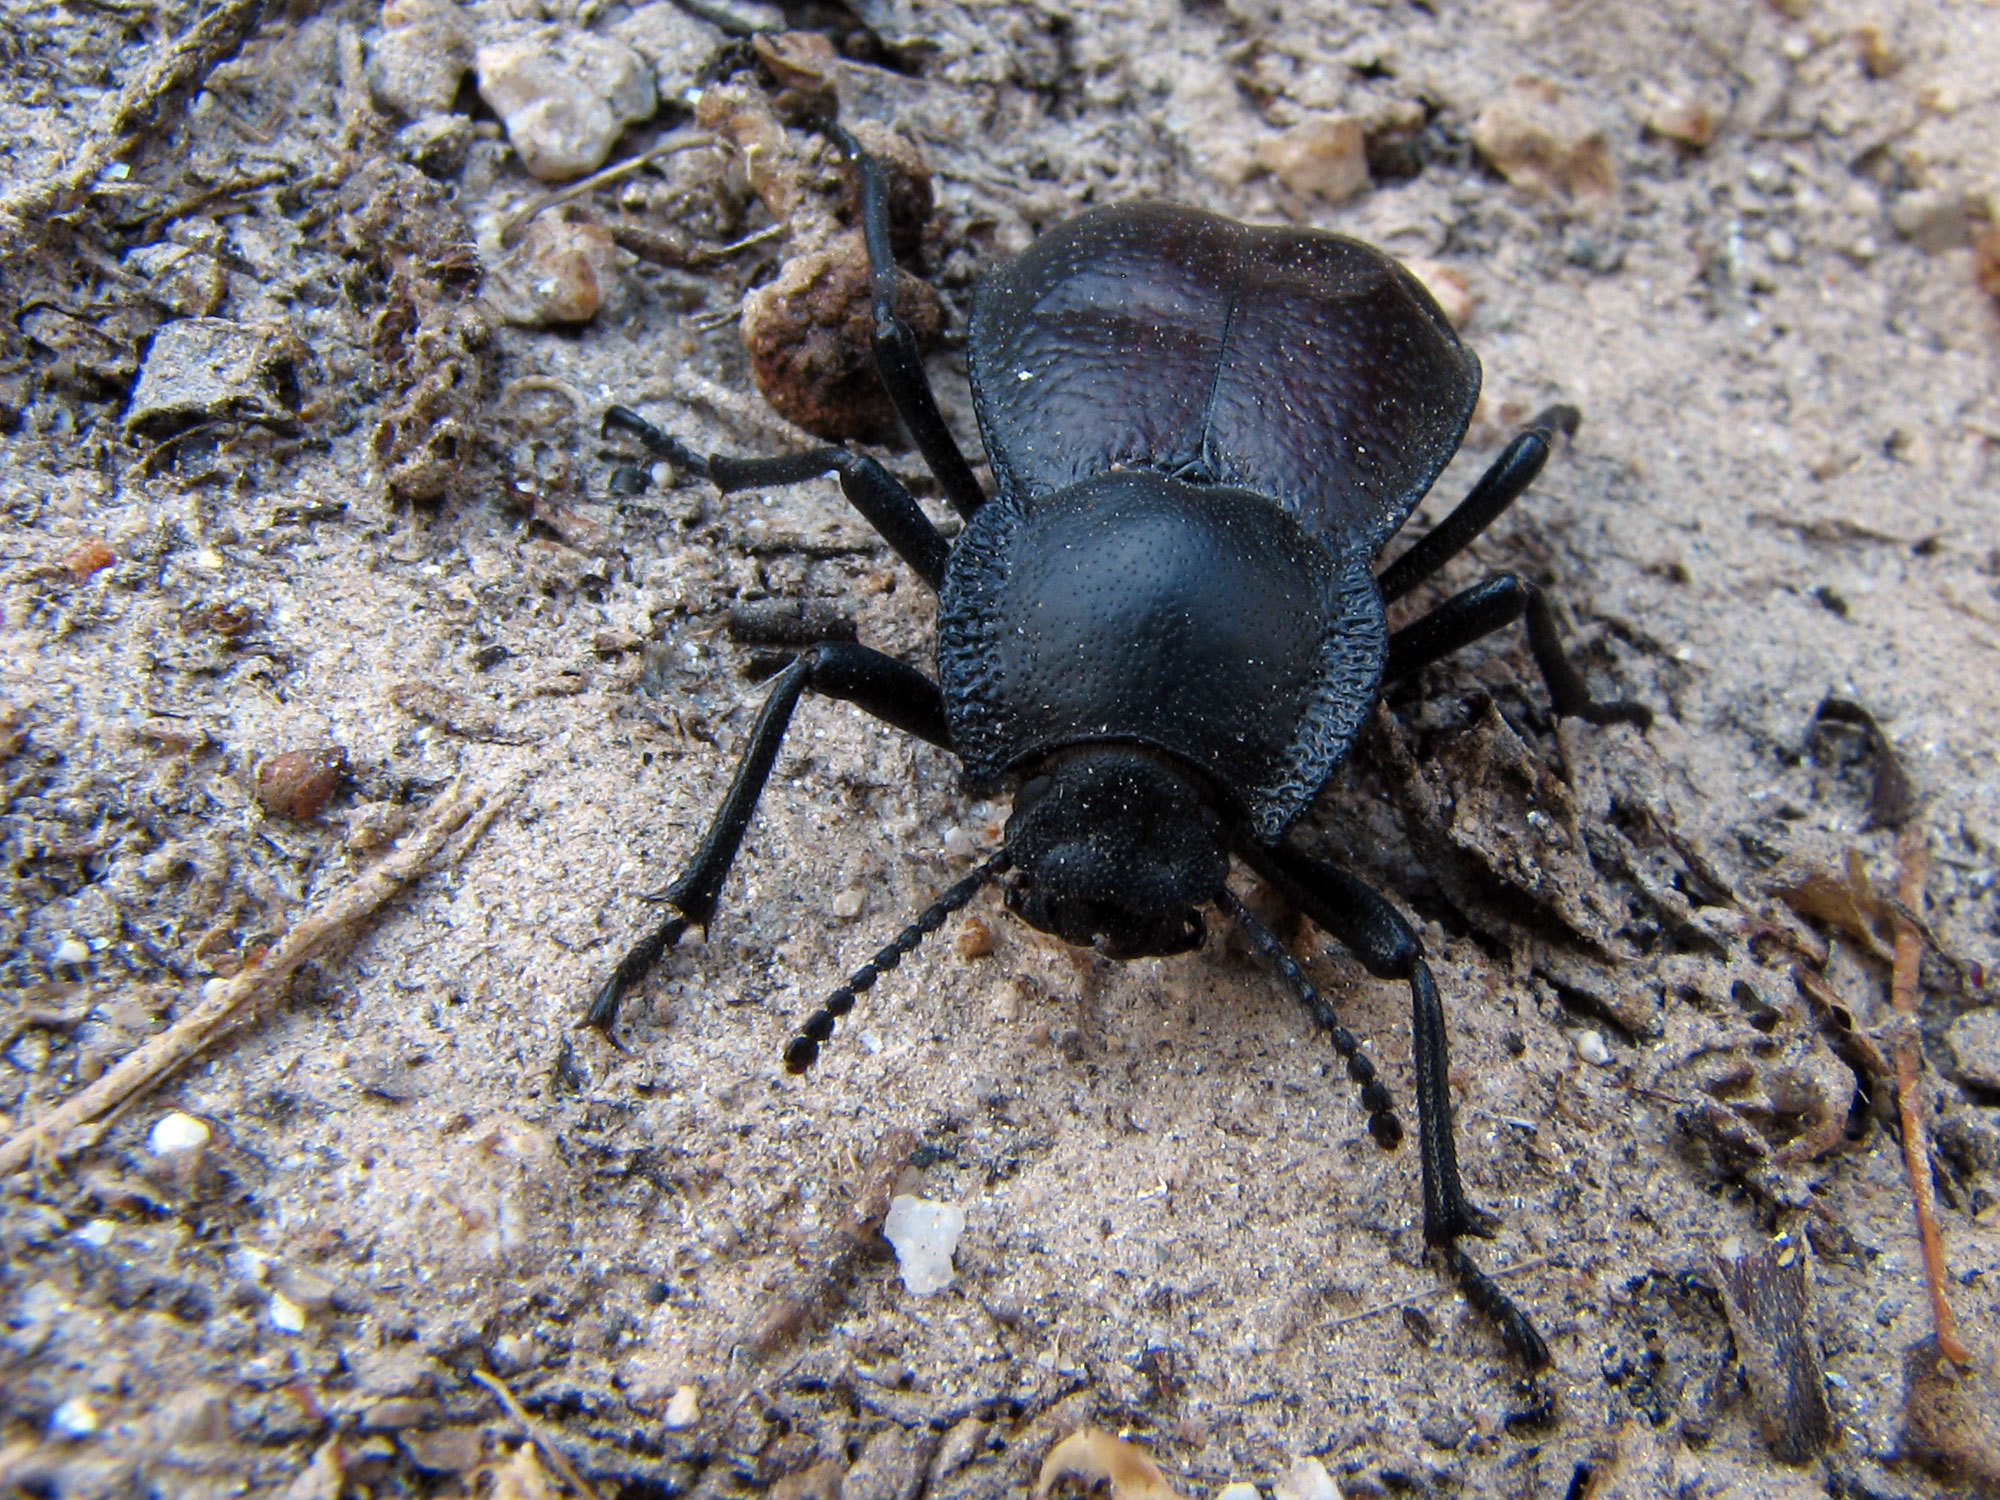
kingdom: Animalia
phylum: Arthropoda
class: Insecta
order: Coleoptera
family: Tenebrionidae
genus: Stenomorpha
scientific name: Stenomorpha marginata
